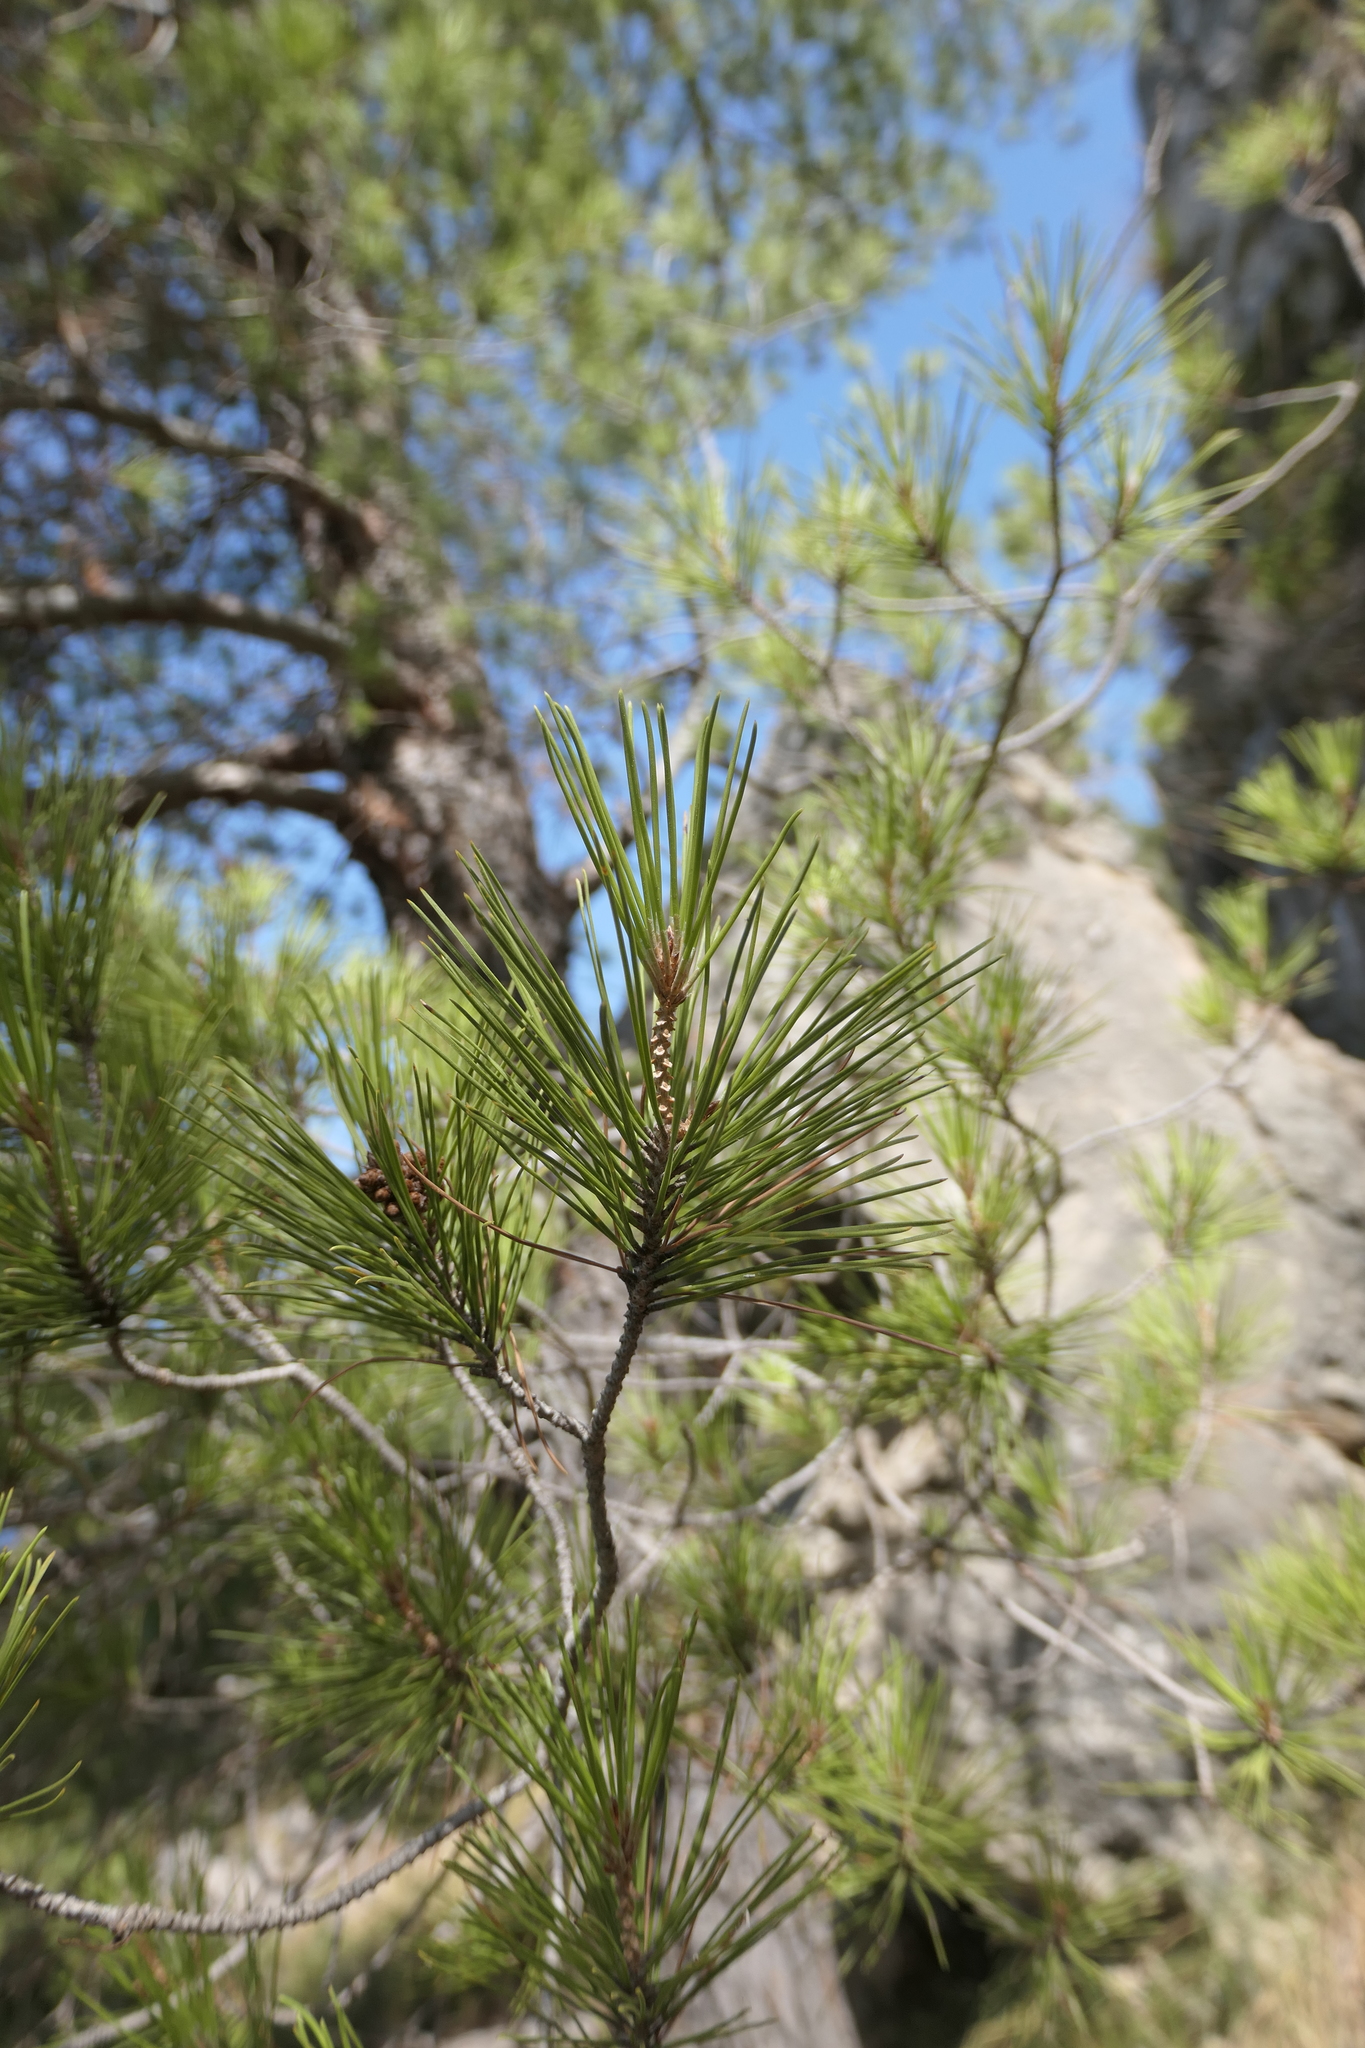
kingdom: Plantae
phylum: Tracheophyta
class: Pinopsida
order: Pinales
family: Pinaceae
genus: Pinus
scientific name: Pinus halepensis
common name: Aleppo pine
